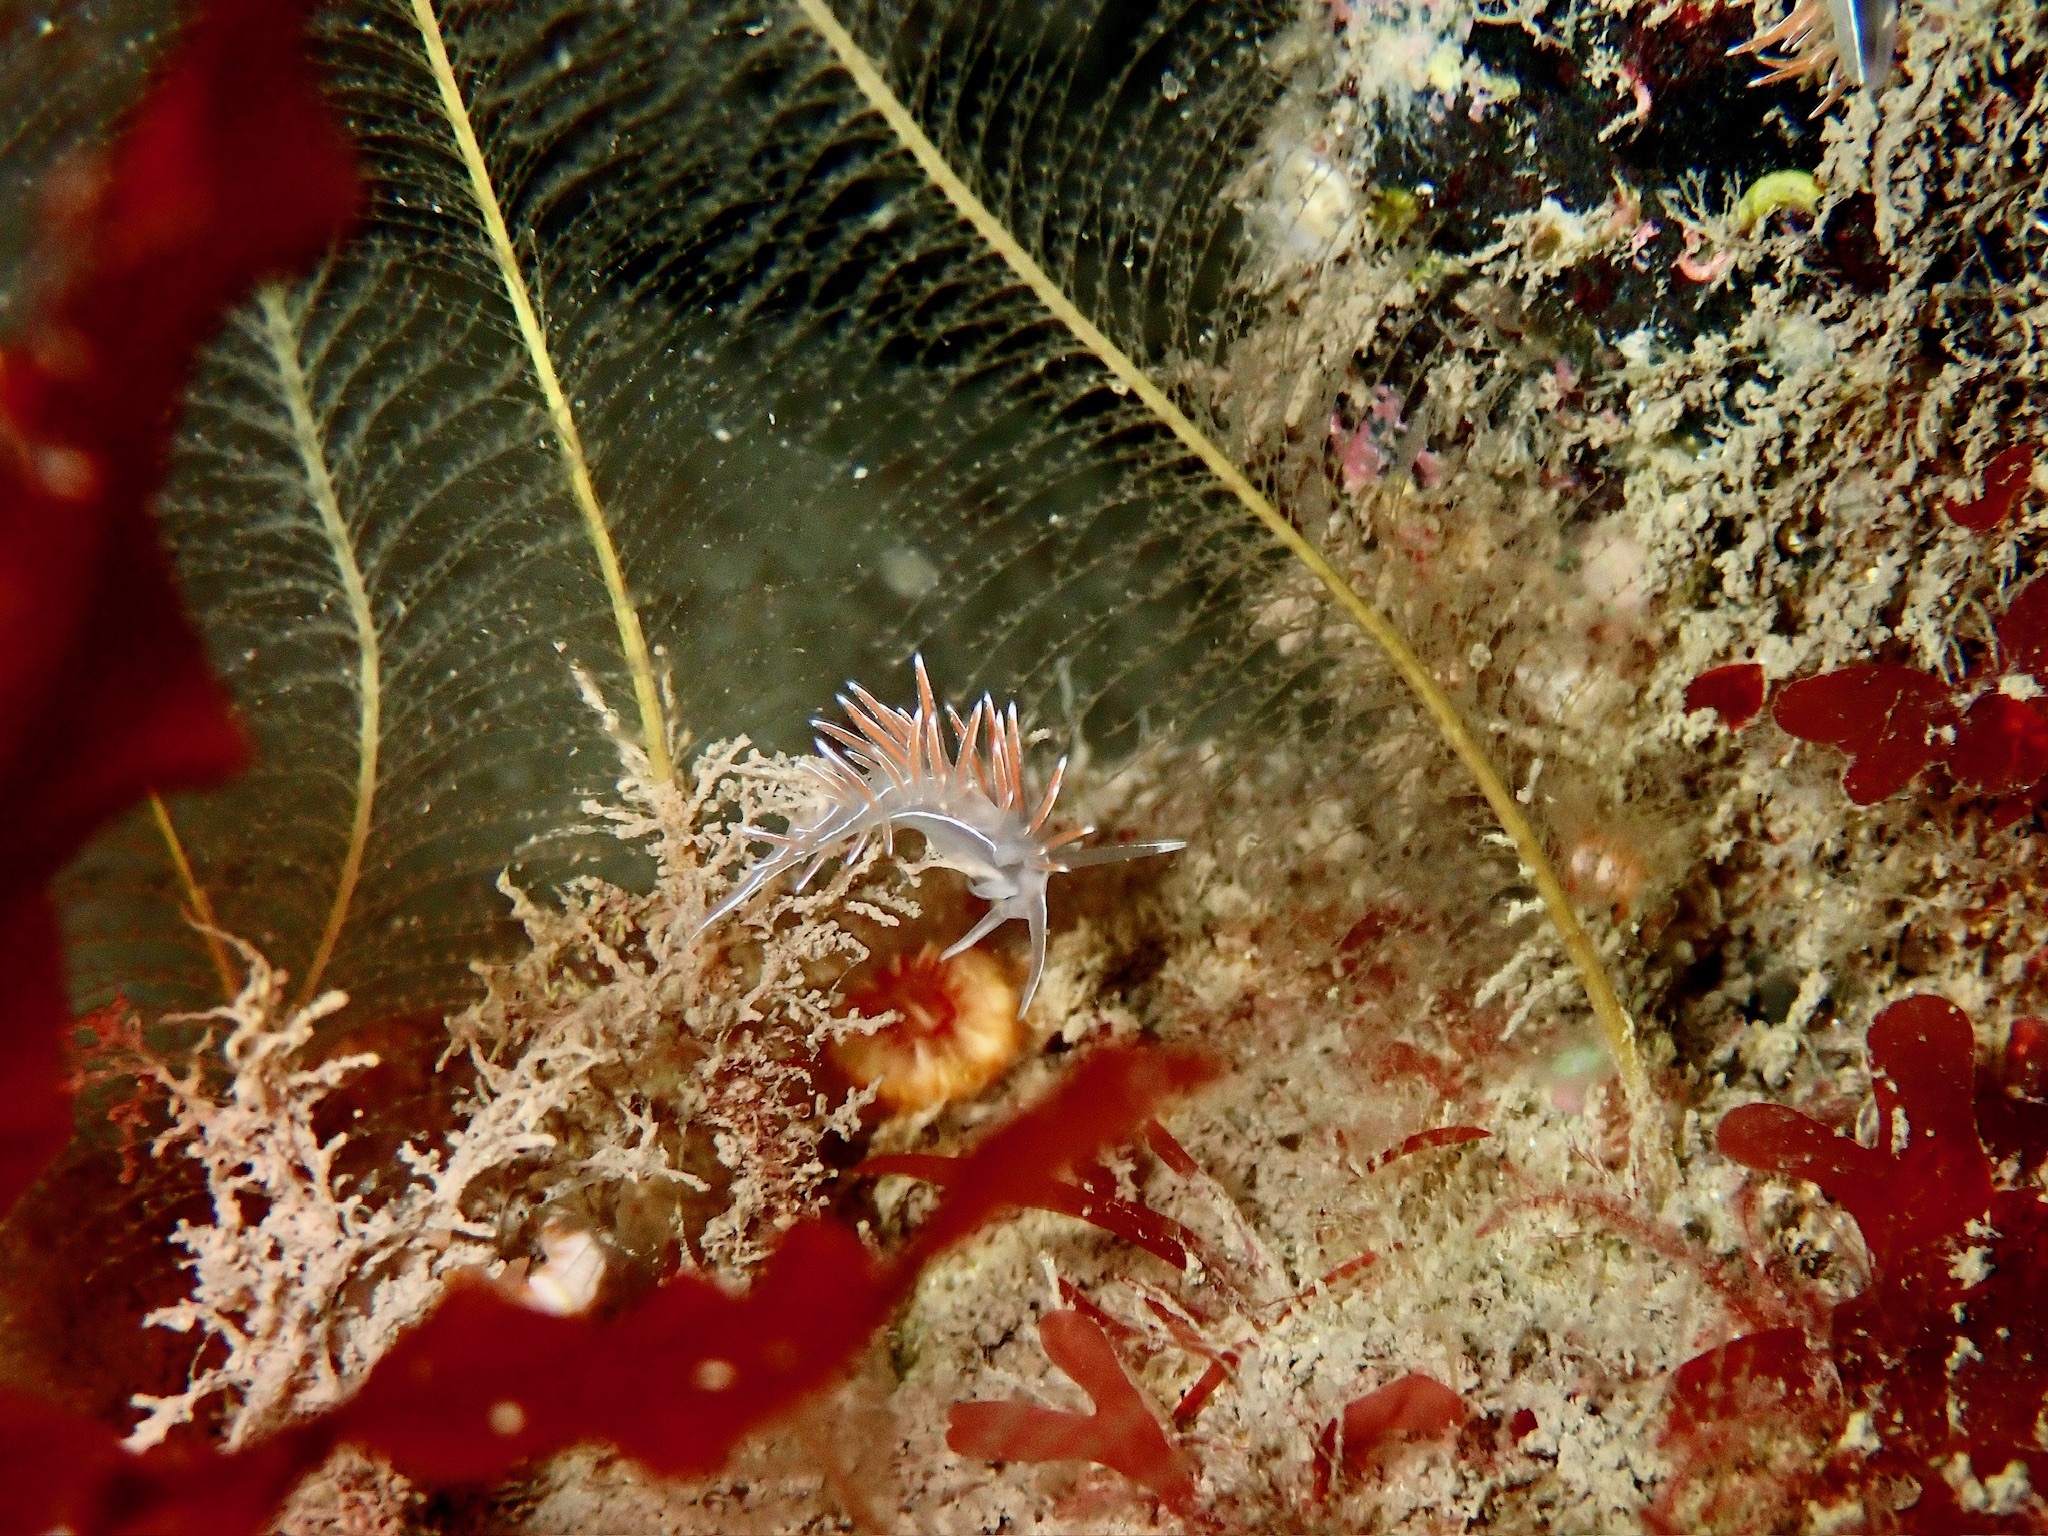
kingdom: Animalia
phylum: Mollusca
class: Gastropoda
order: Nudibranchia
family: Coryphellidae
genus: Coryphella
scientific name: Coryphella lineata
